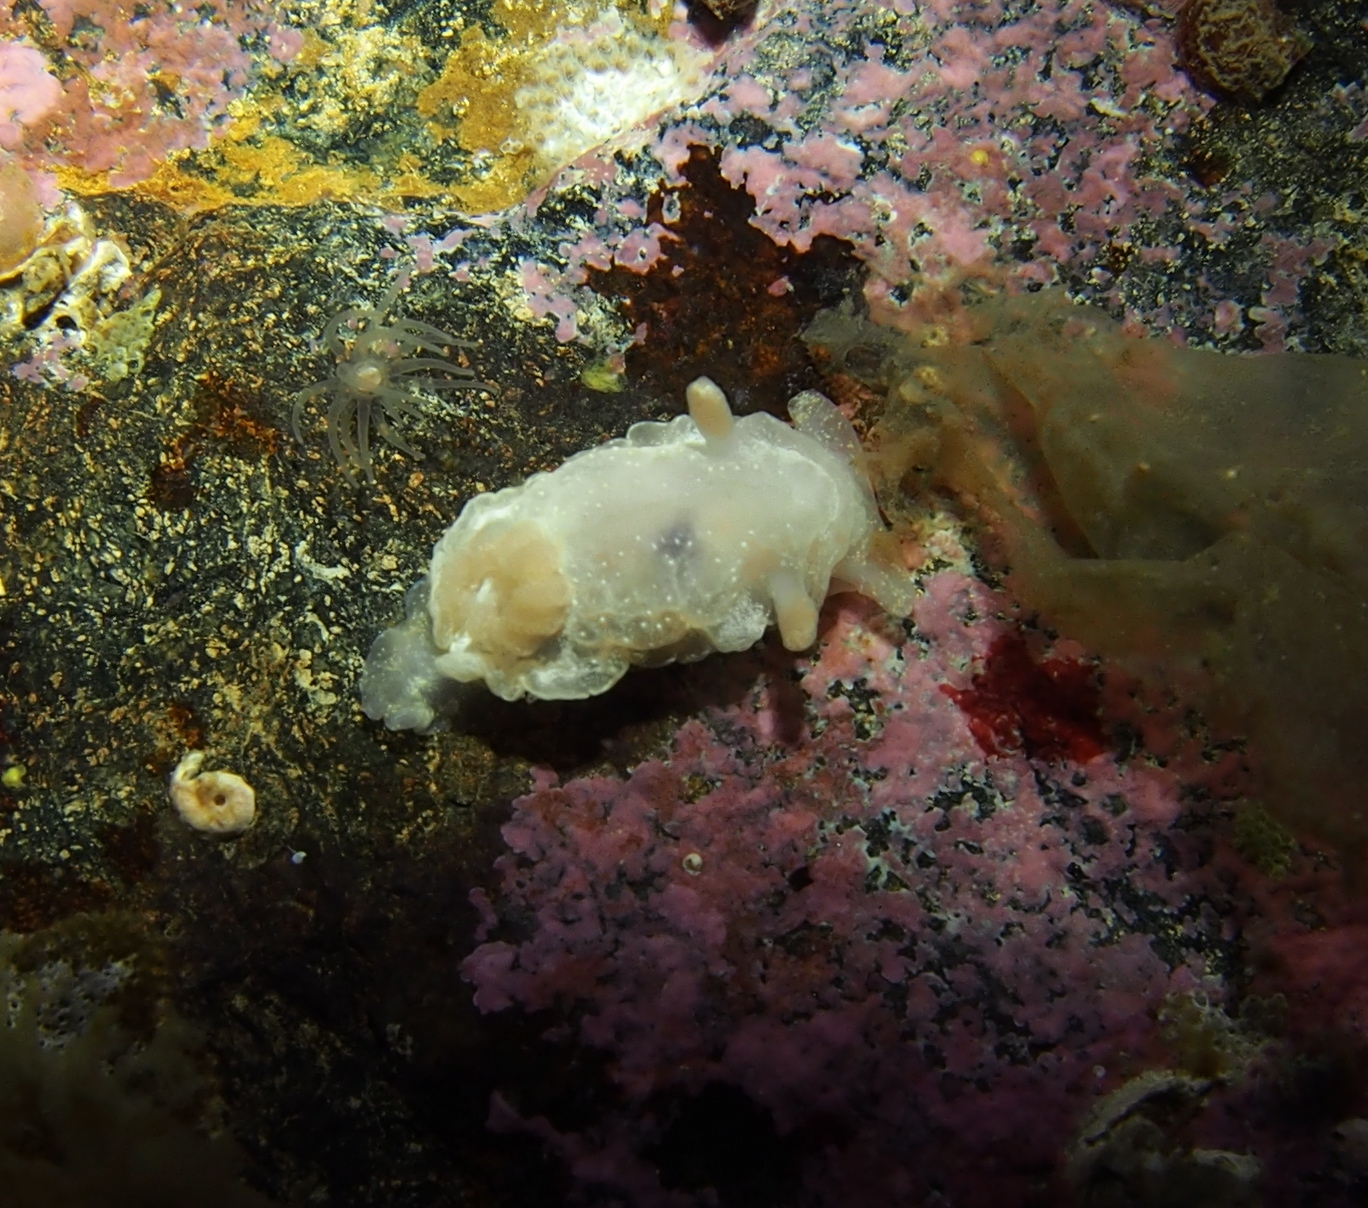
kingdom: Animalia
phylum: Mollusca
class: Gastropoda
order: Nudibranchia
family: Goniodorididae
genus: Okenia
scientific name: Okenia
